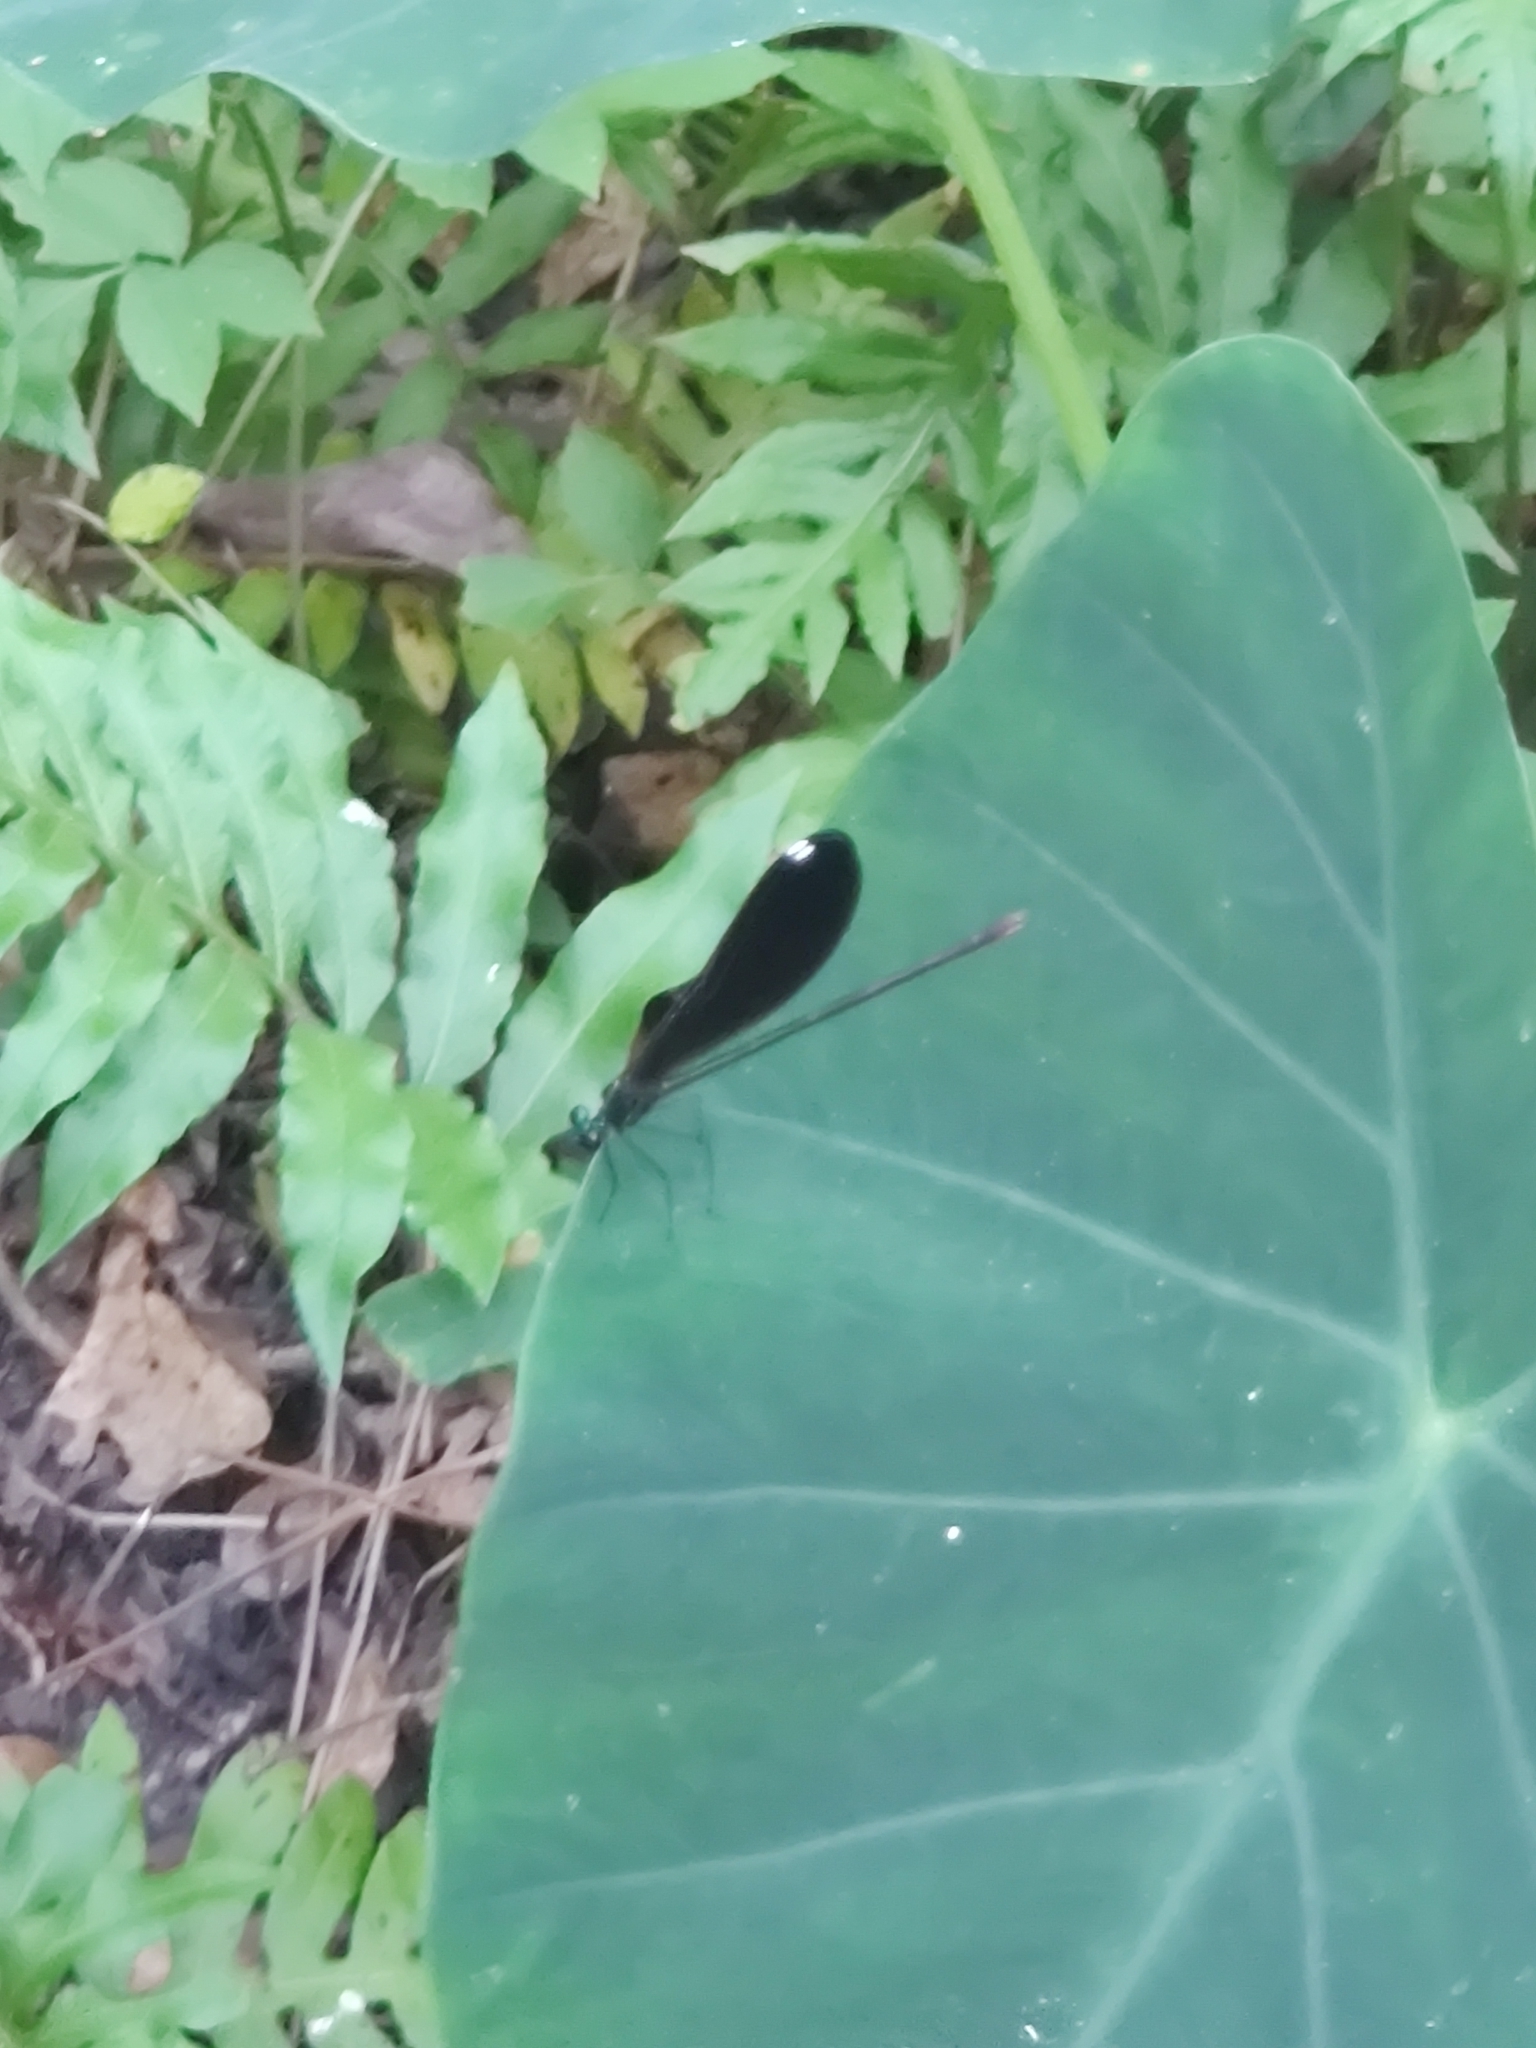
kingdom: Animalia
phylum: Arthropoda
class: Insecta
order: Odonata
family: Calopterygidae
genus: Calopteryx
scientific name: Calopteryx maculata
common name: Ebony jewelwing
